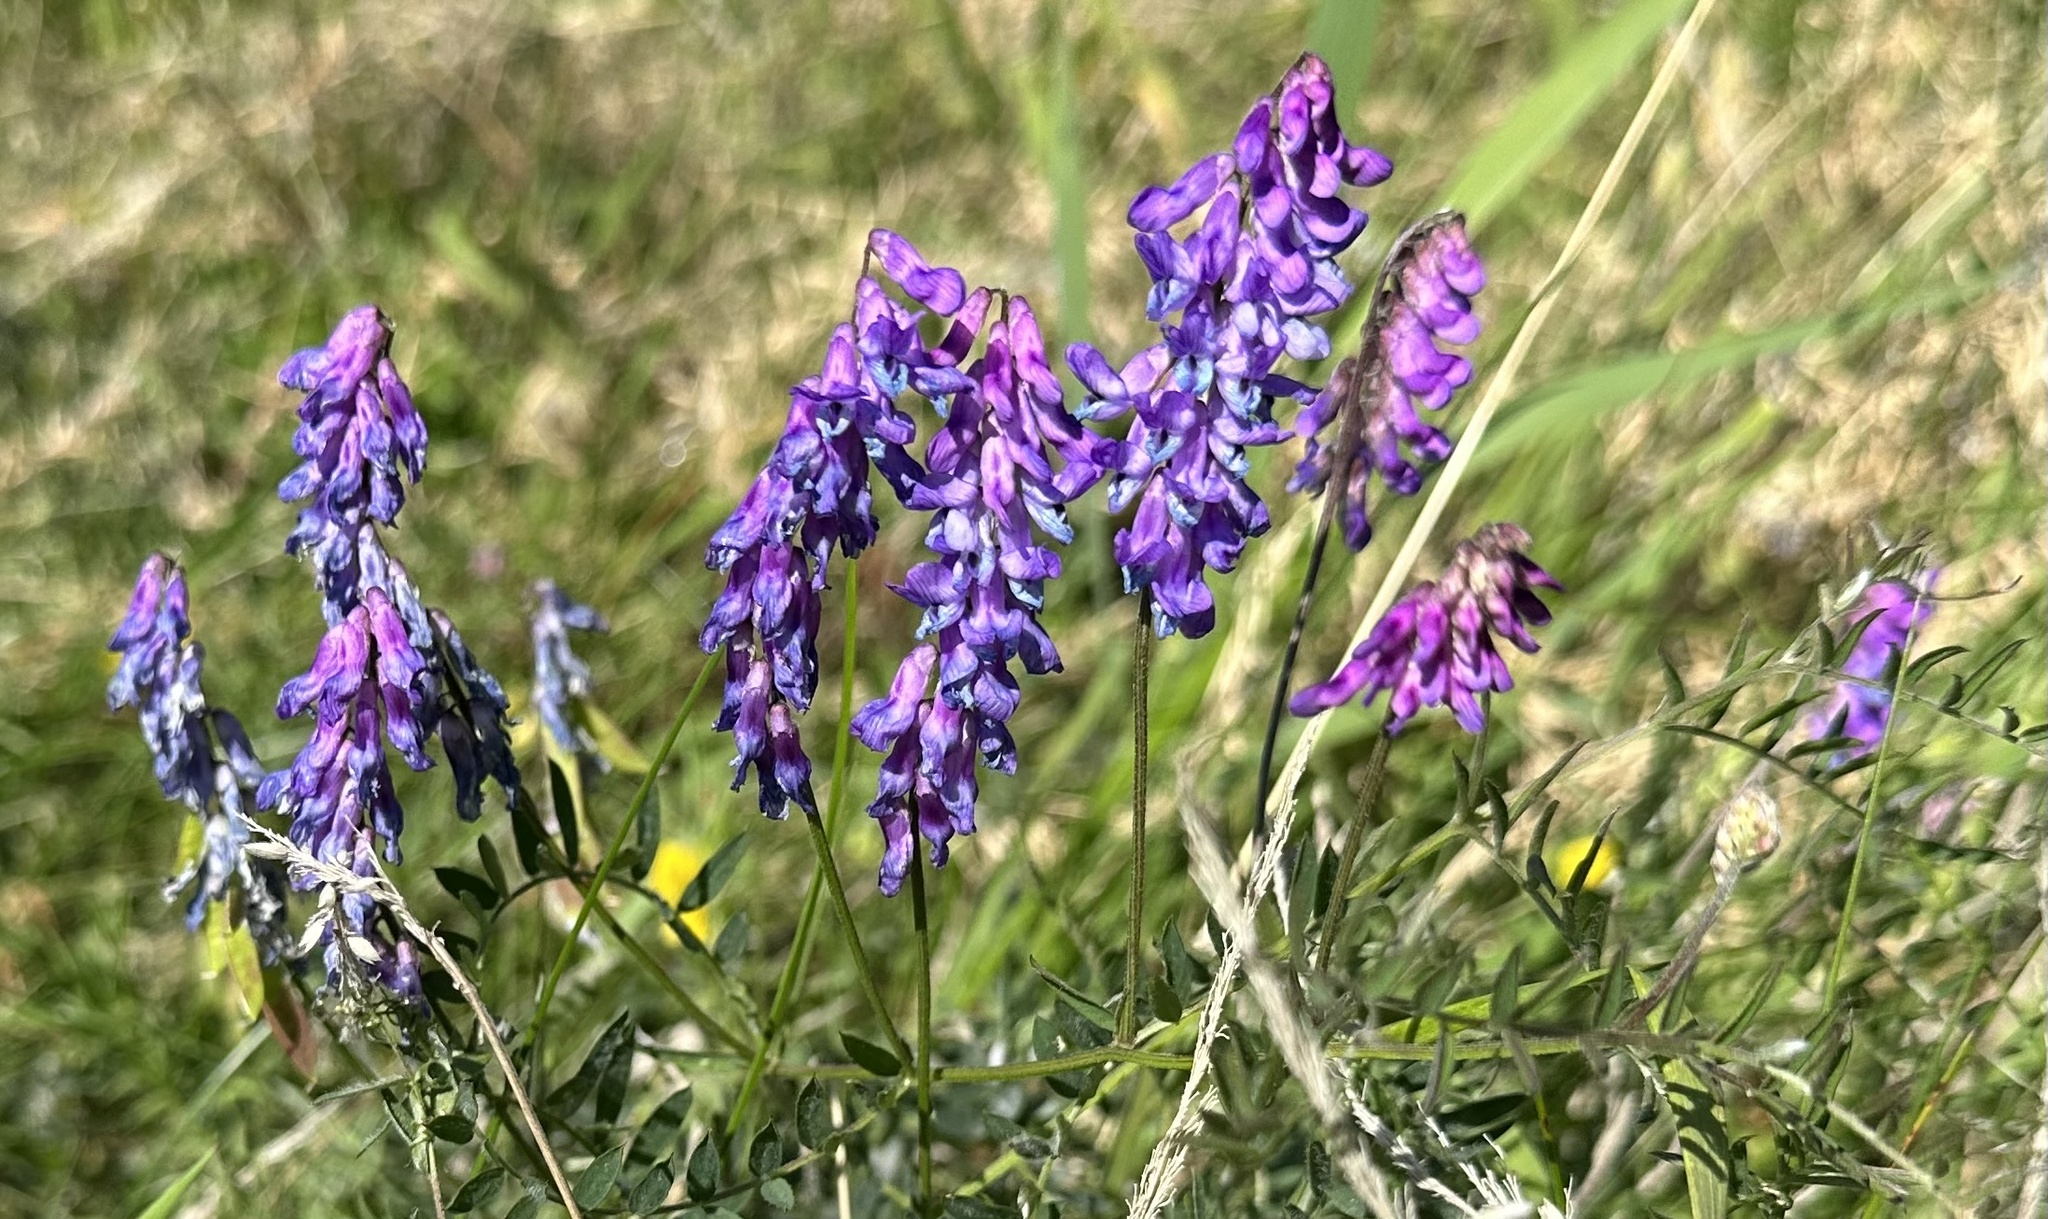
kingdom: Plantae
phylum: Tracheophyta
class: Magnoliopsida
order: Fabales
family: Fabaceae
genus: Vicia
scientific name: Vicia cracca
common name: Bird vetch
